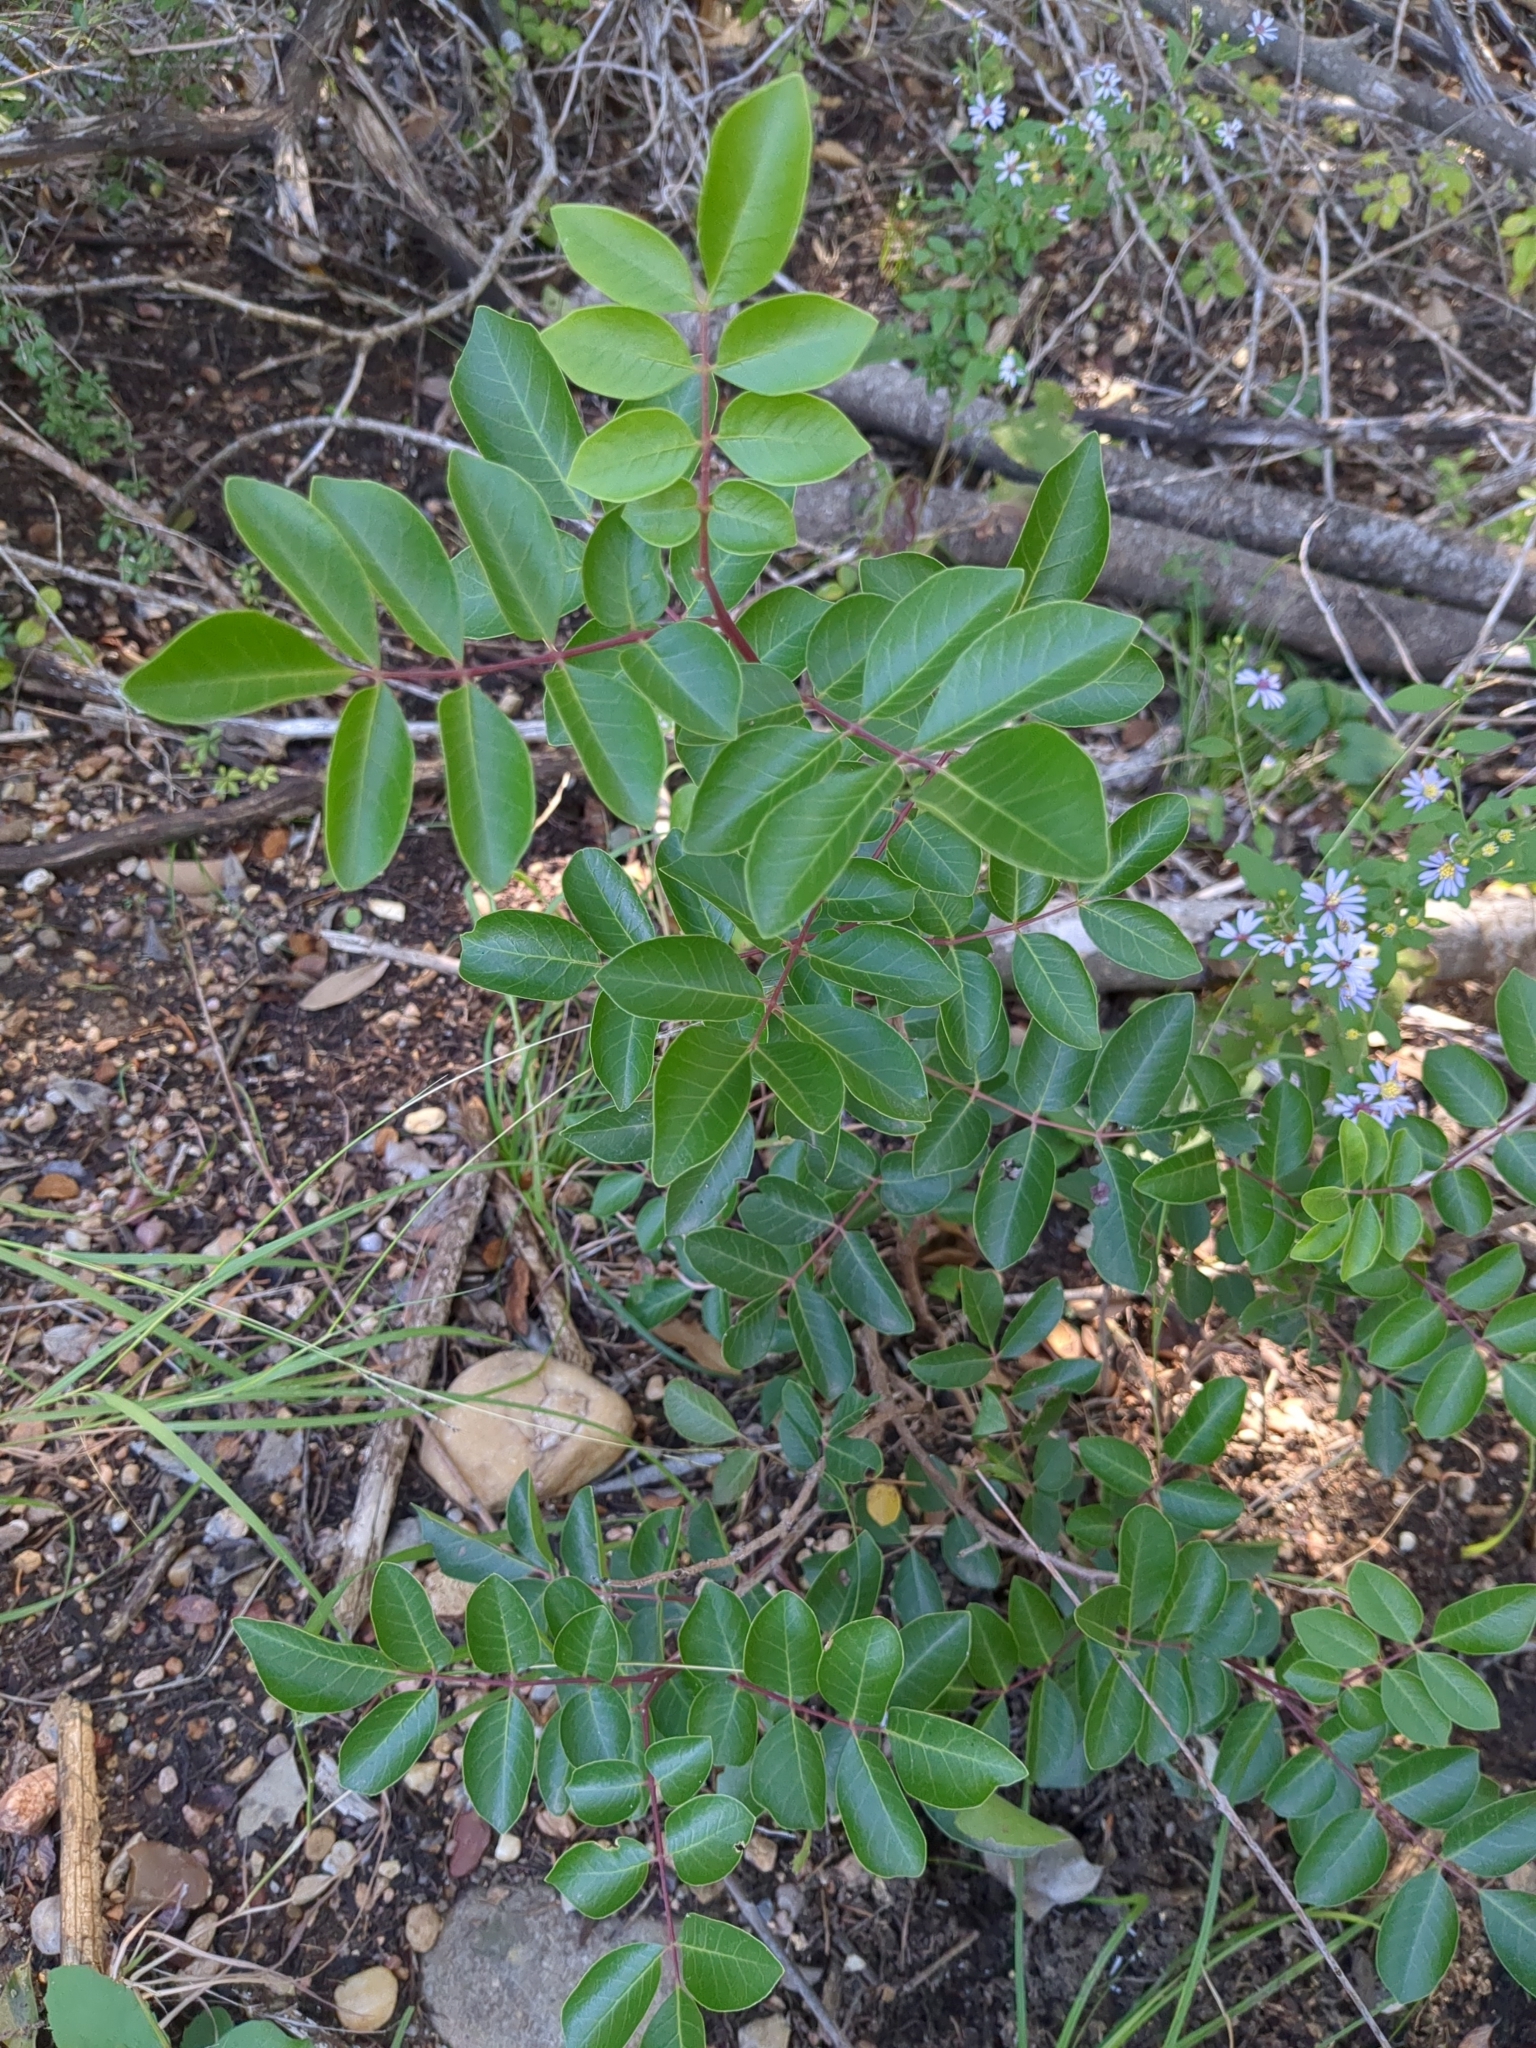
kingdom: Plantae
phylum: Tracheophyta
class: Magnoliopsida
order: Sapindales
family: Anacardiaceae
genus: Rhus
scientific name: Rhus virens
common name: Evergreen sumac
